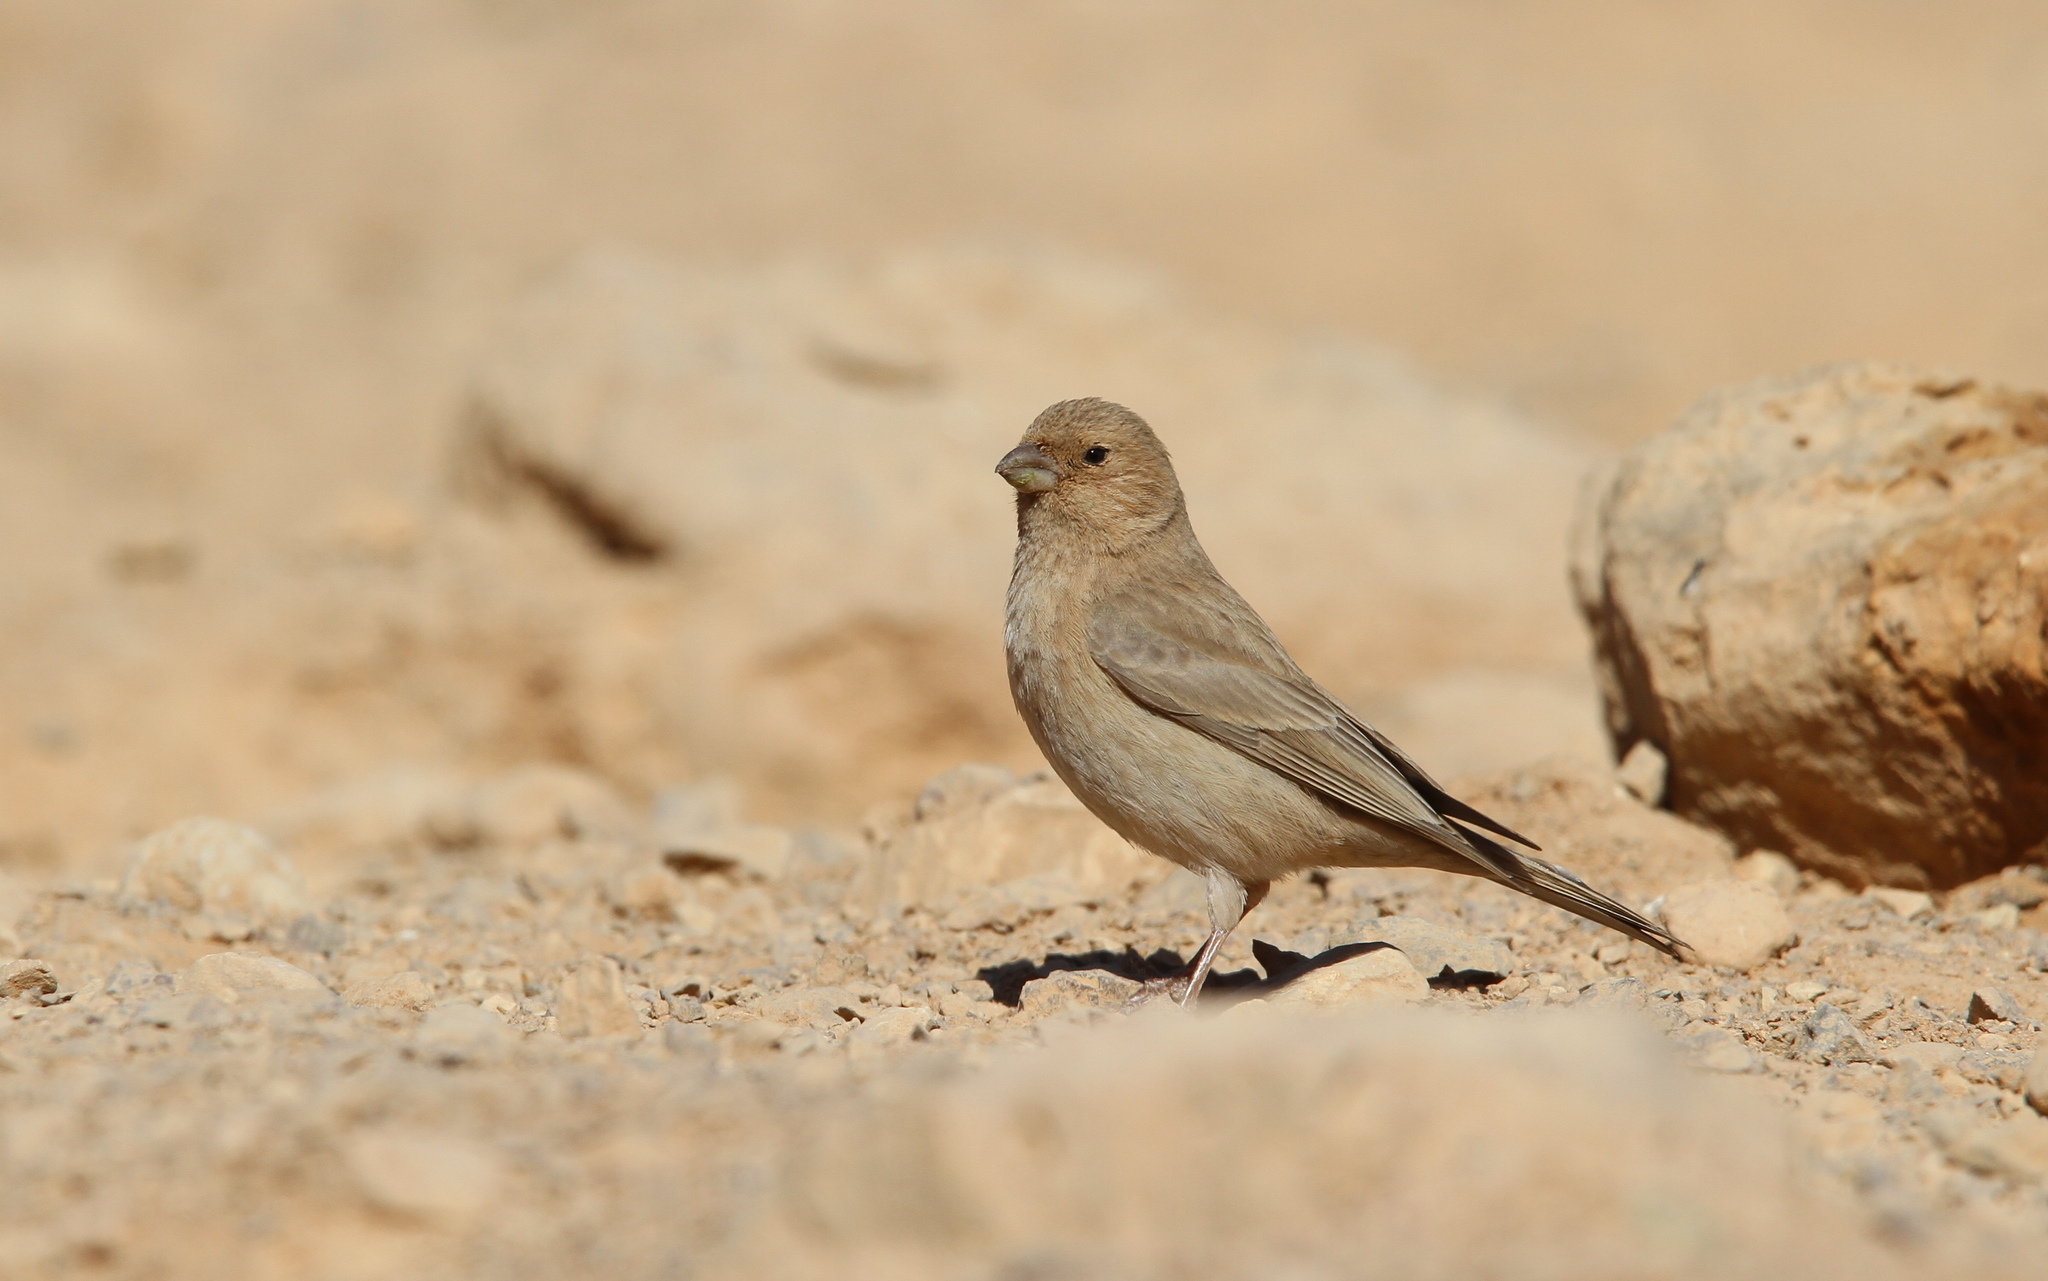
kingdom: Animalia
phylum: Chordata
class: Aves
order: Passeriformes
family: Fringillidae
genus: Carpodacus
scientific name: Carpodacus synoicus
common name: Sinai rosefinch
